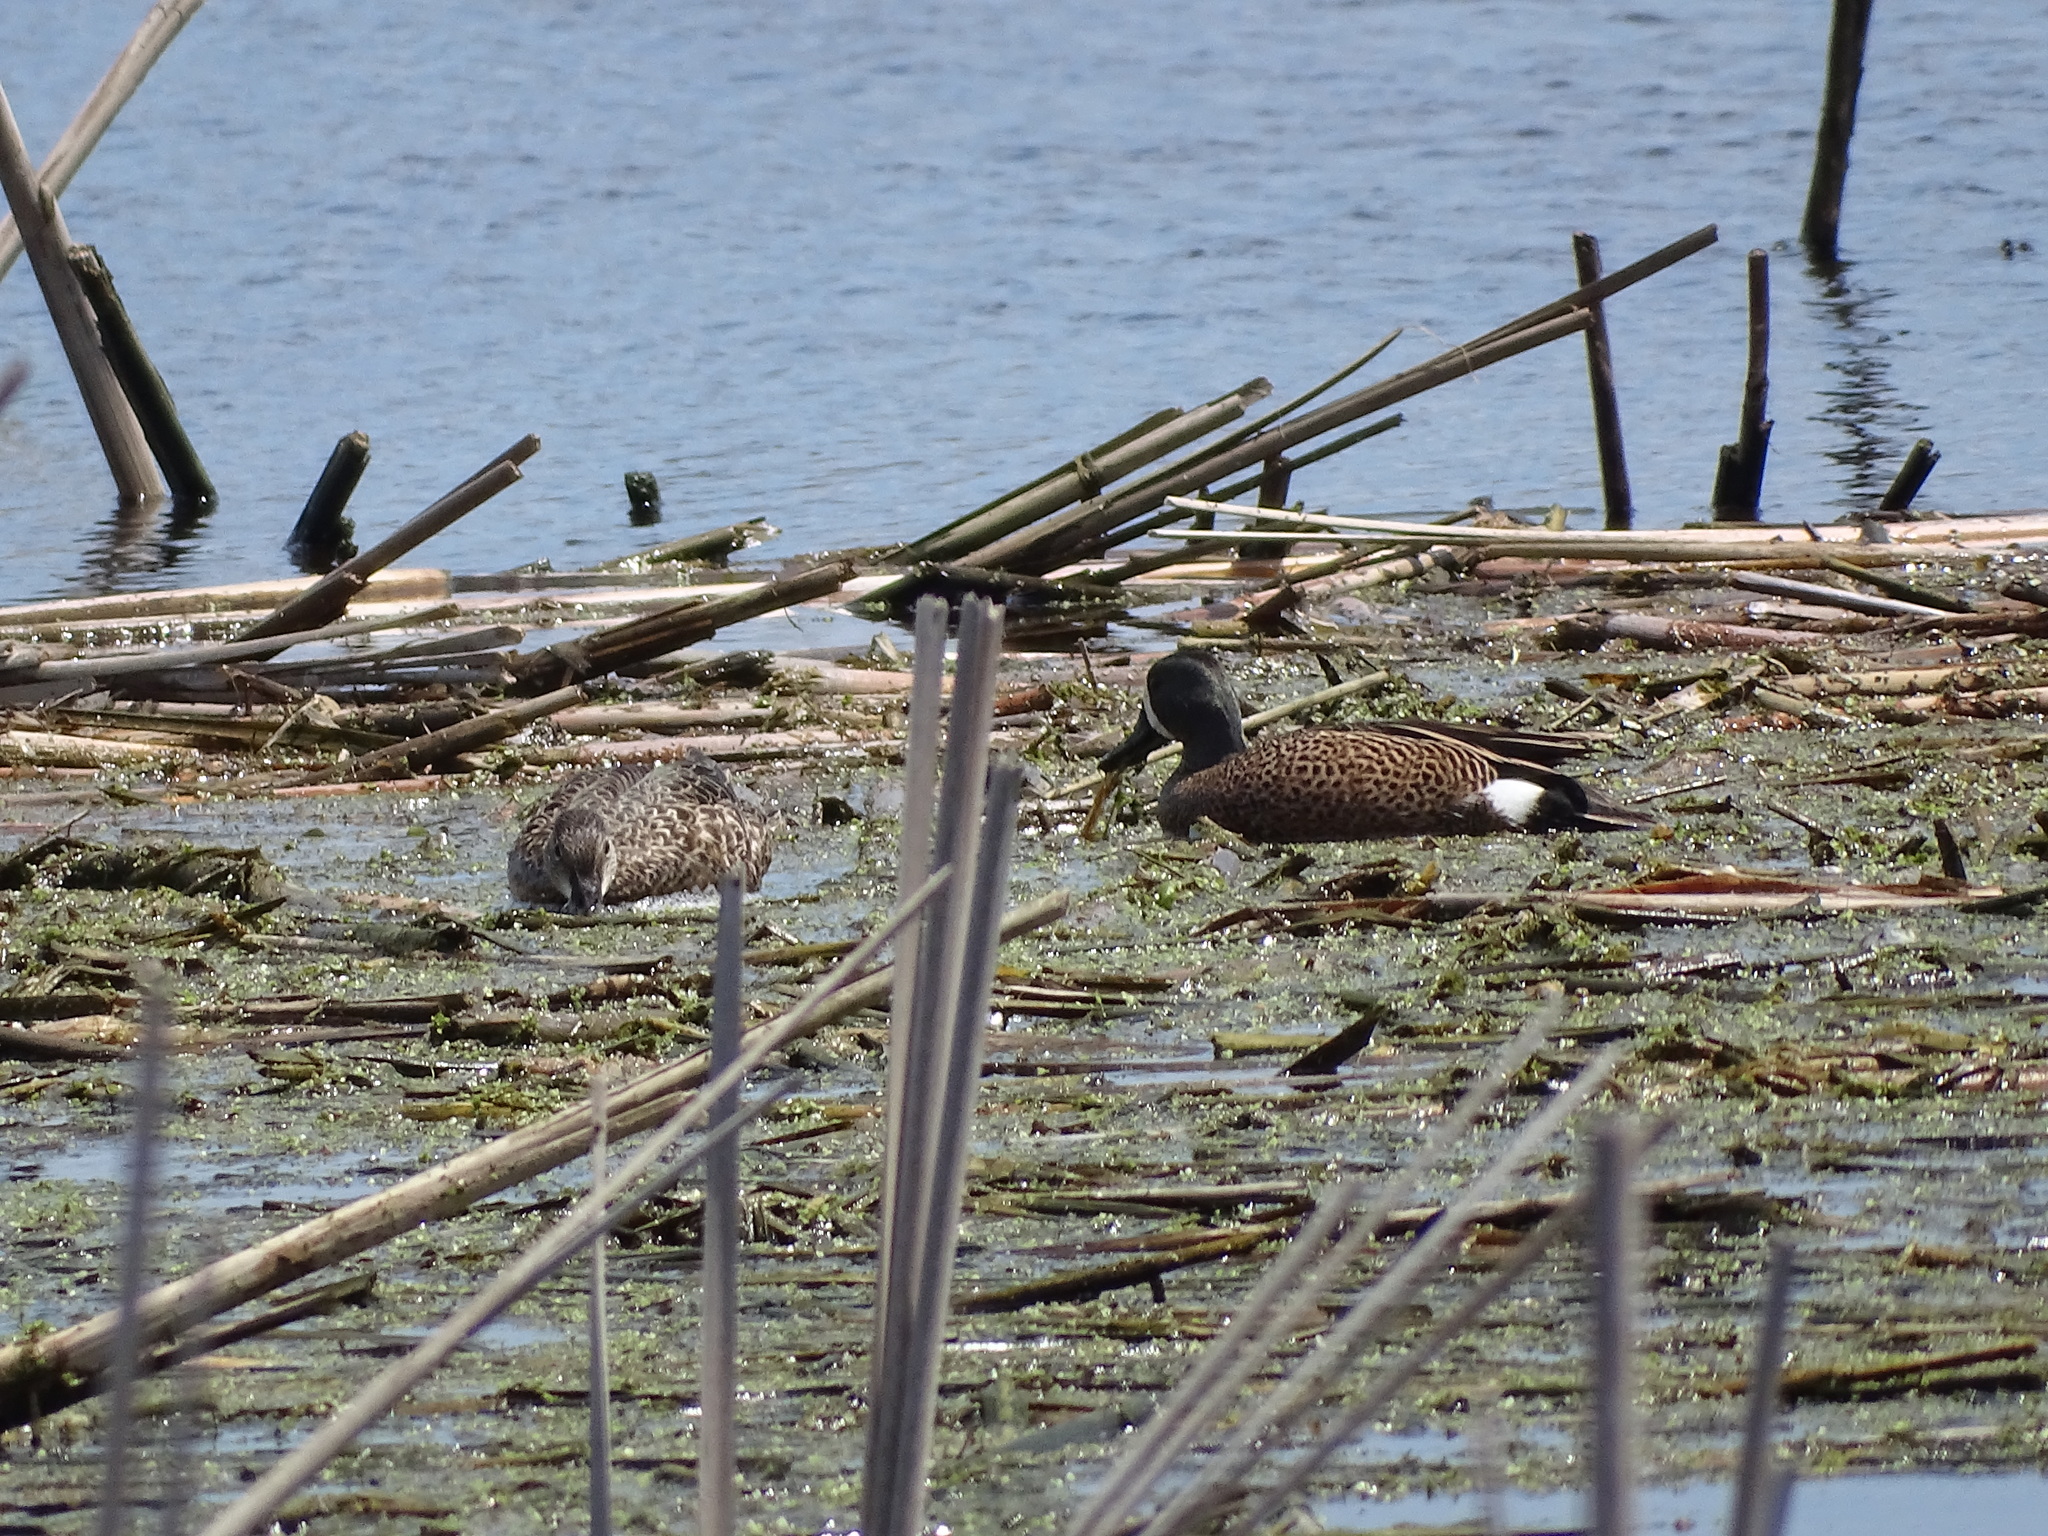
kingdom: Animalia
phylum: Chordata
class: Aves
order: Anseriformes
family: Anatidae
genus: Spatula
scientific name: Spatula discors
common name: Blue-winged teal
